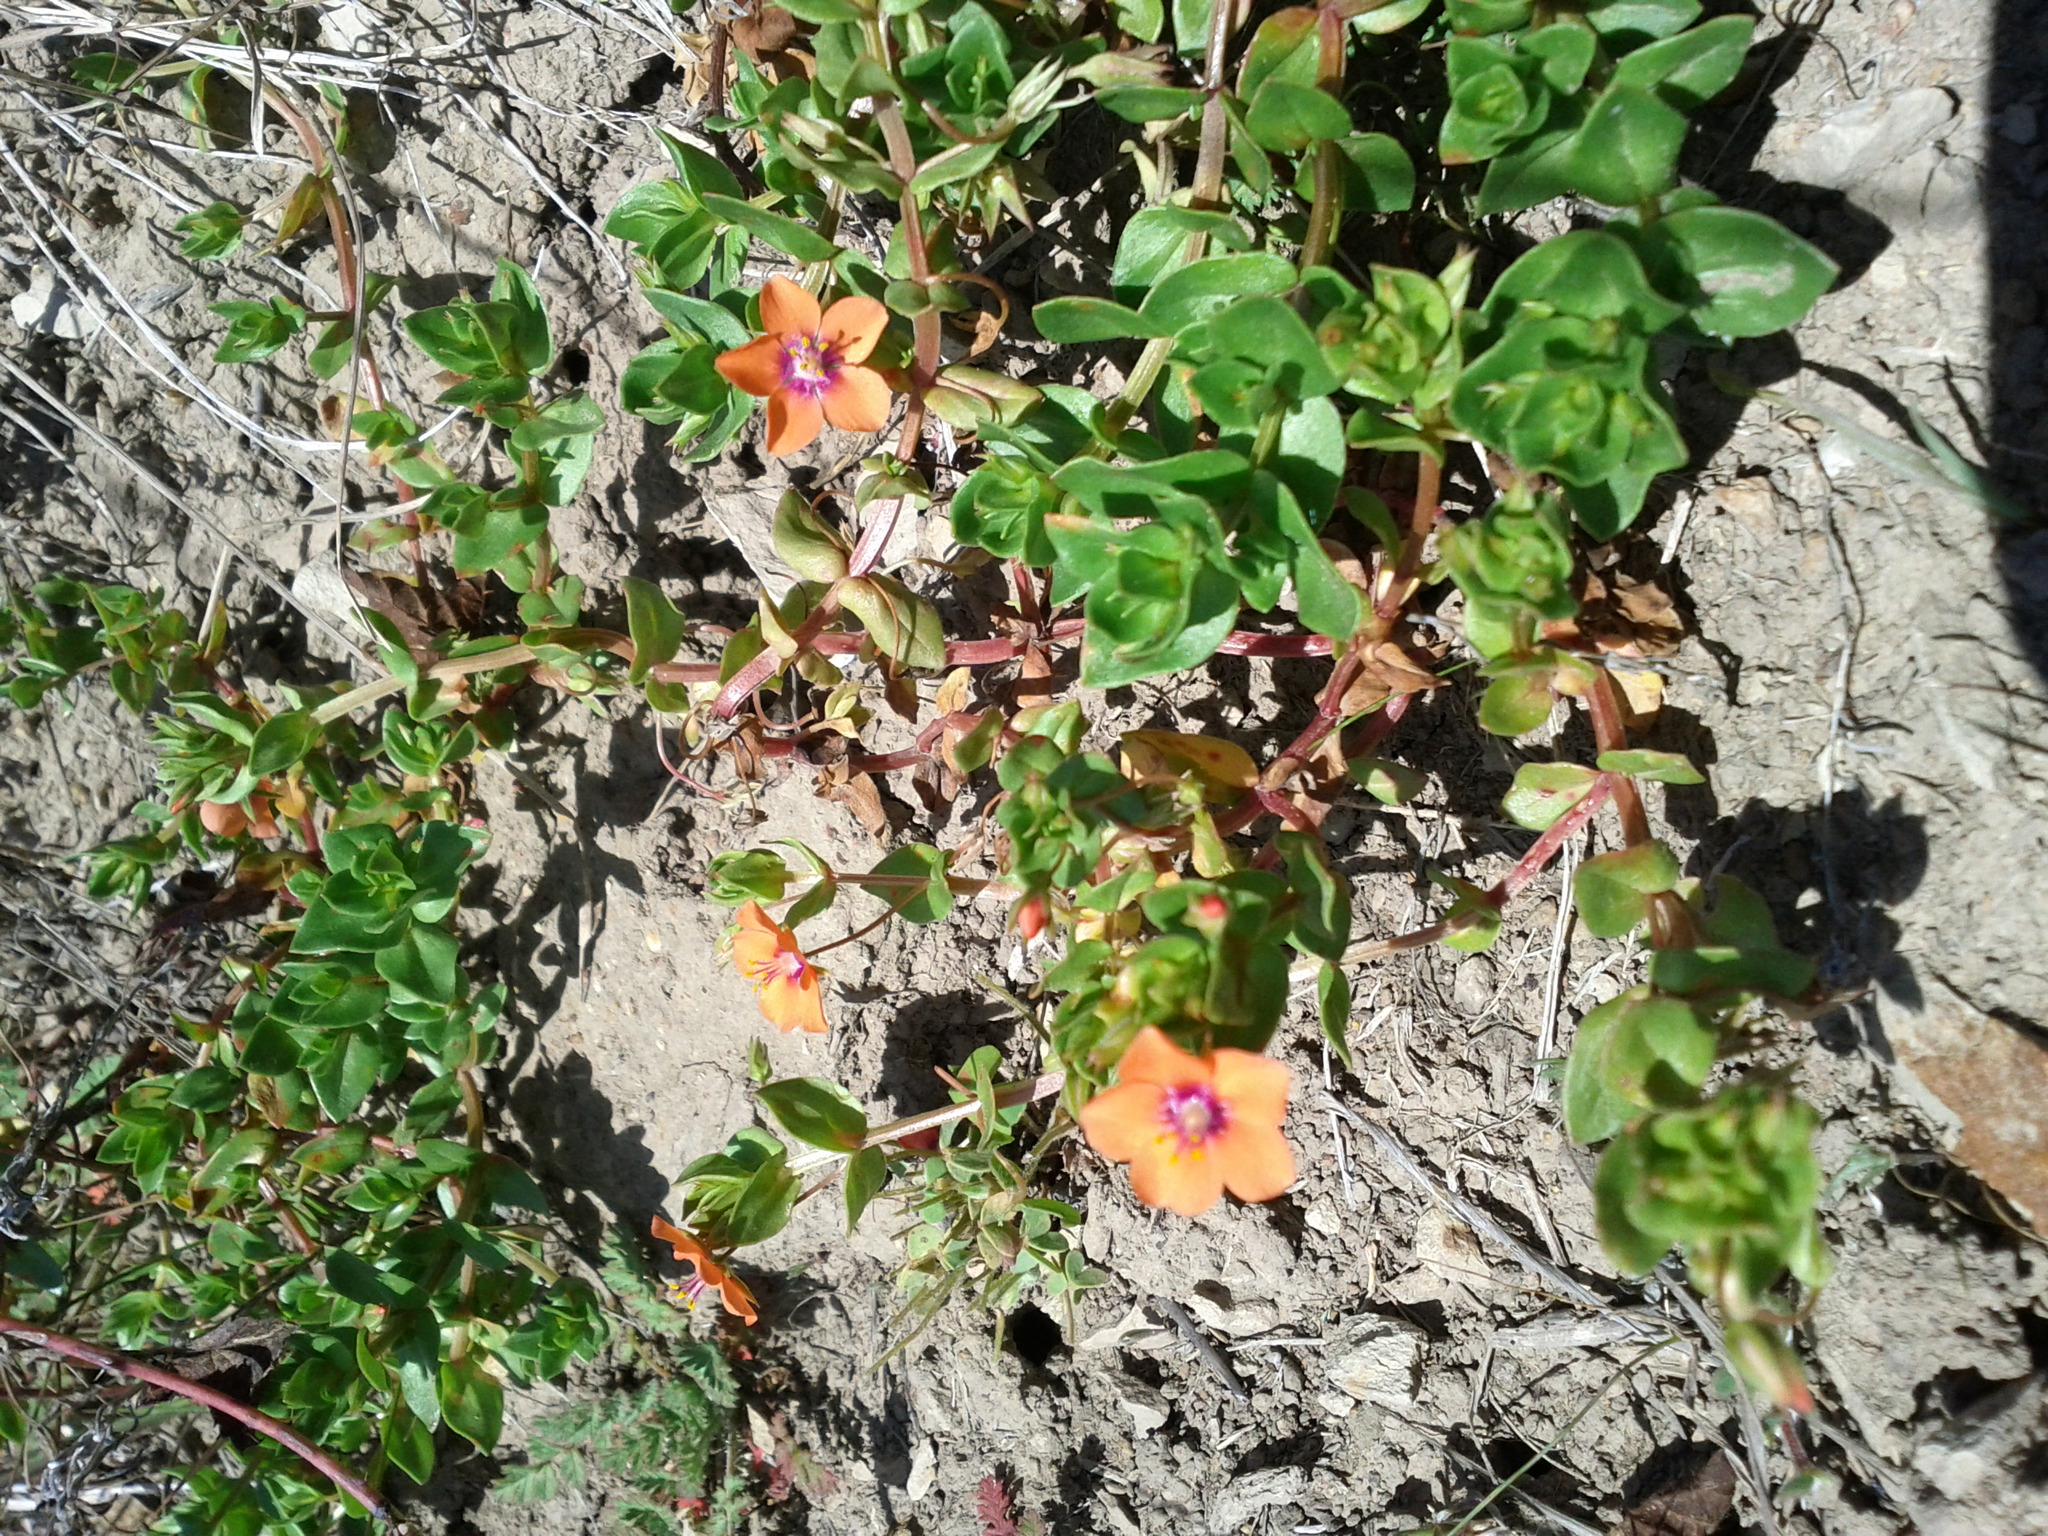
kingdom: Plantae
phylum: Tracheophyta
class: Magnoliopsida
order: Ericales
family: Primulaceae
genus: Lysimachia
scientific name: Lysimachia arvensis
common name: Scarlet pimpernel
